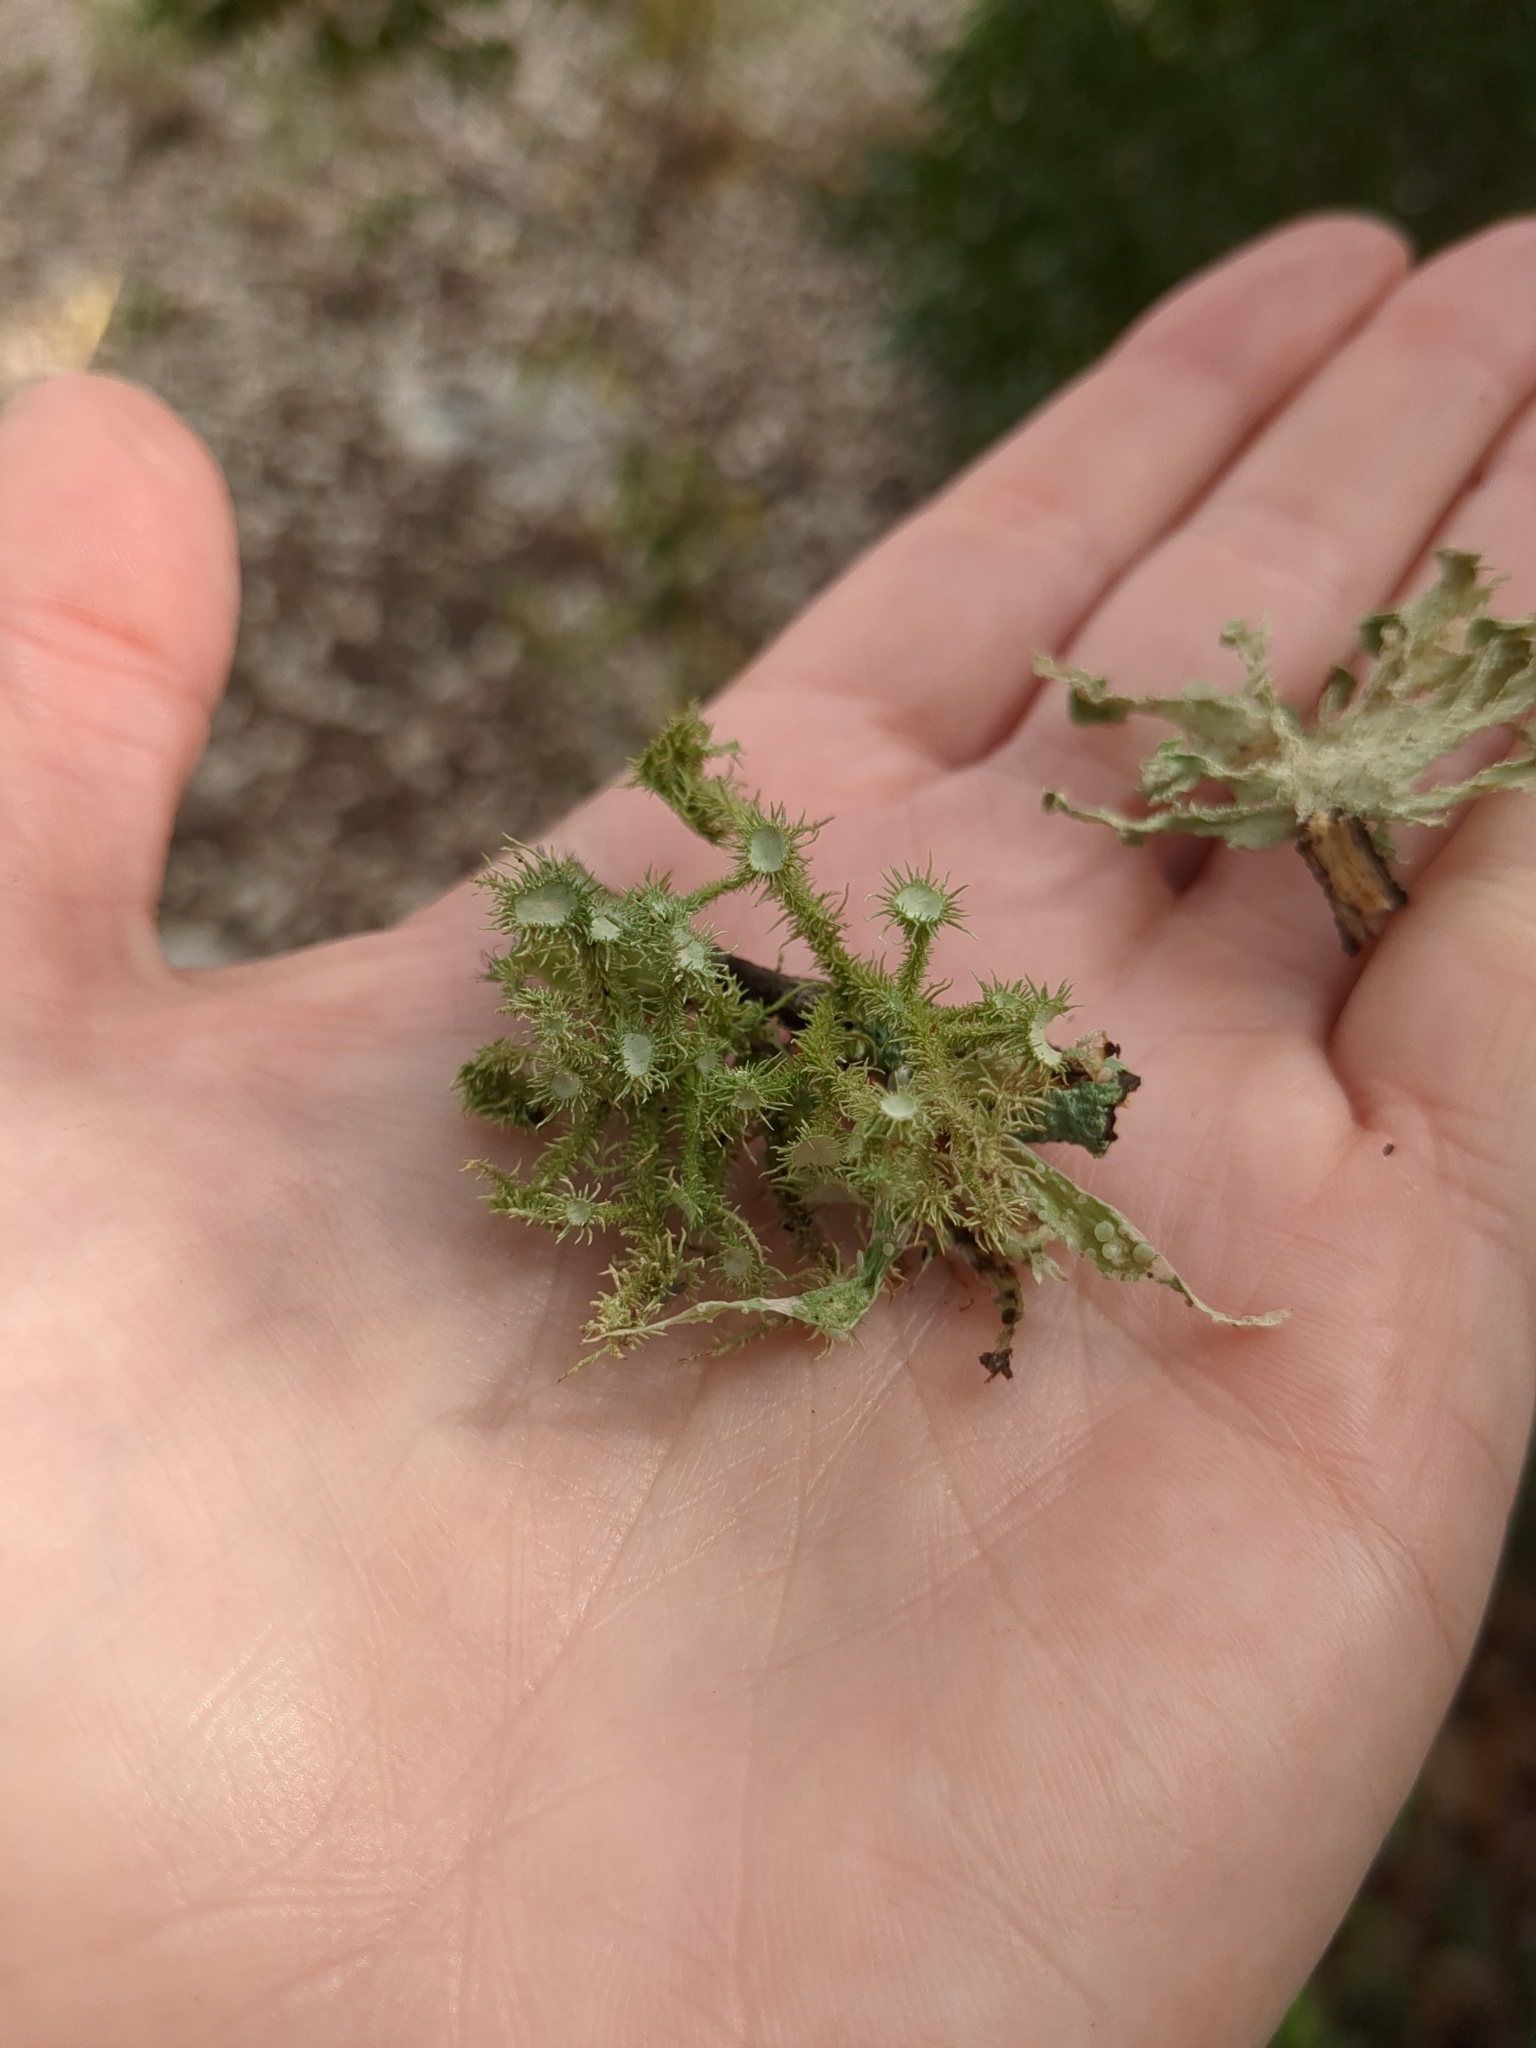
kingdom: Fungi
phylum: Ascomycota
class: Lecanoromycetes
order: Lecanorales
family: Parmeliaceae
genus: Usnea
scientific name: Usnea strigosa
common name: Bushy beard lichen
